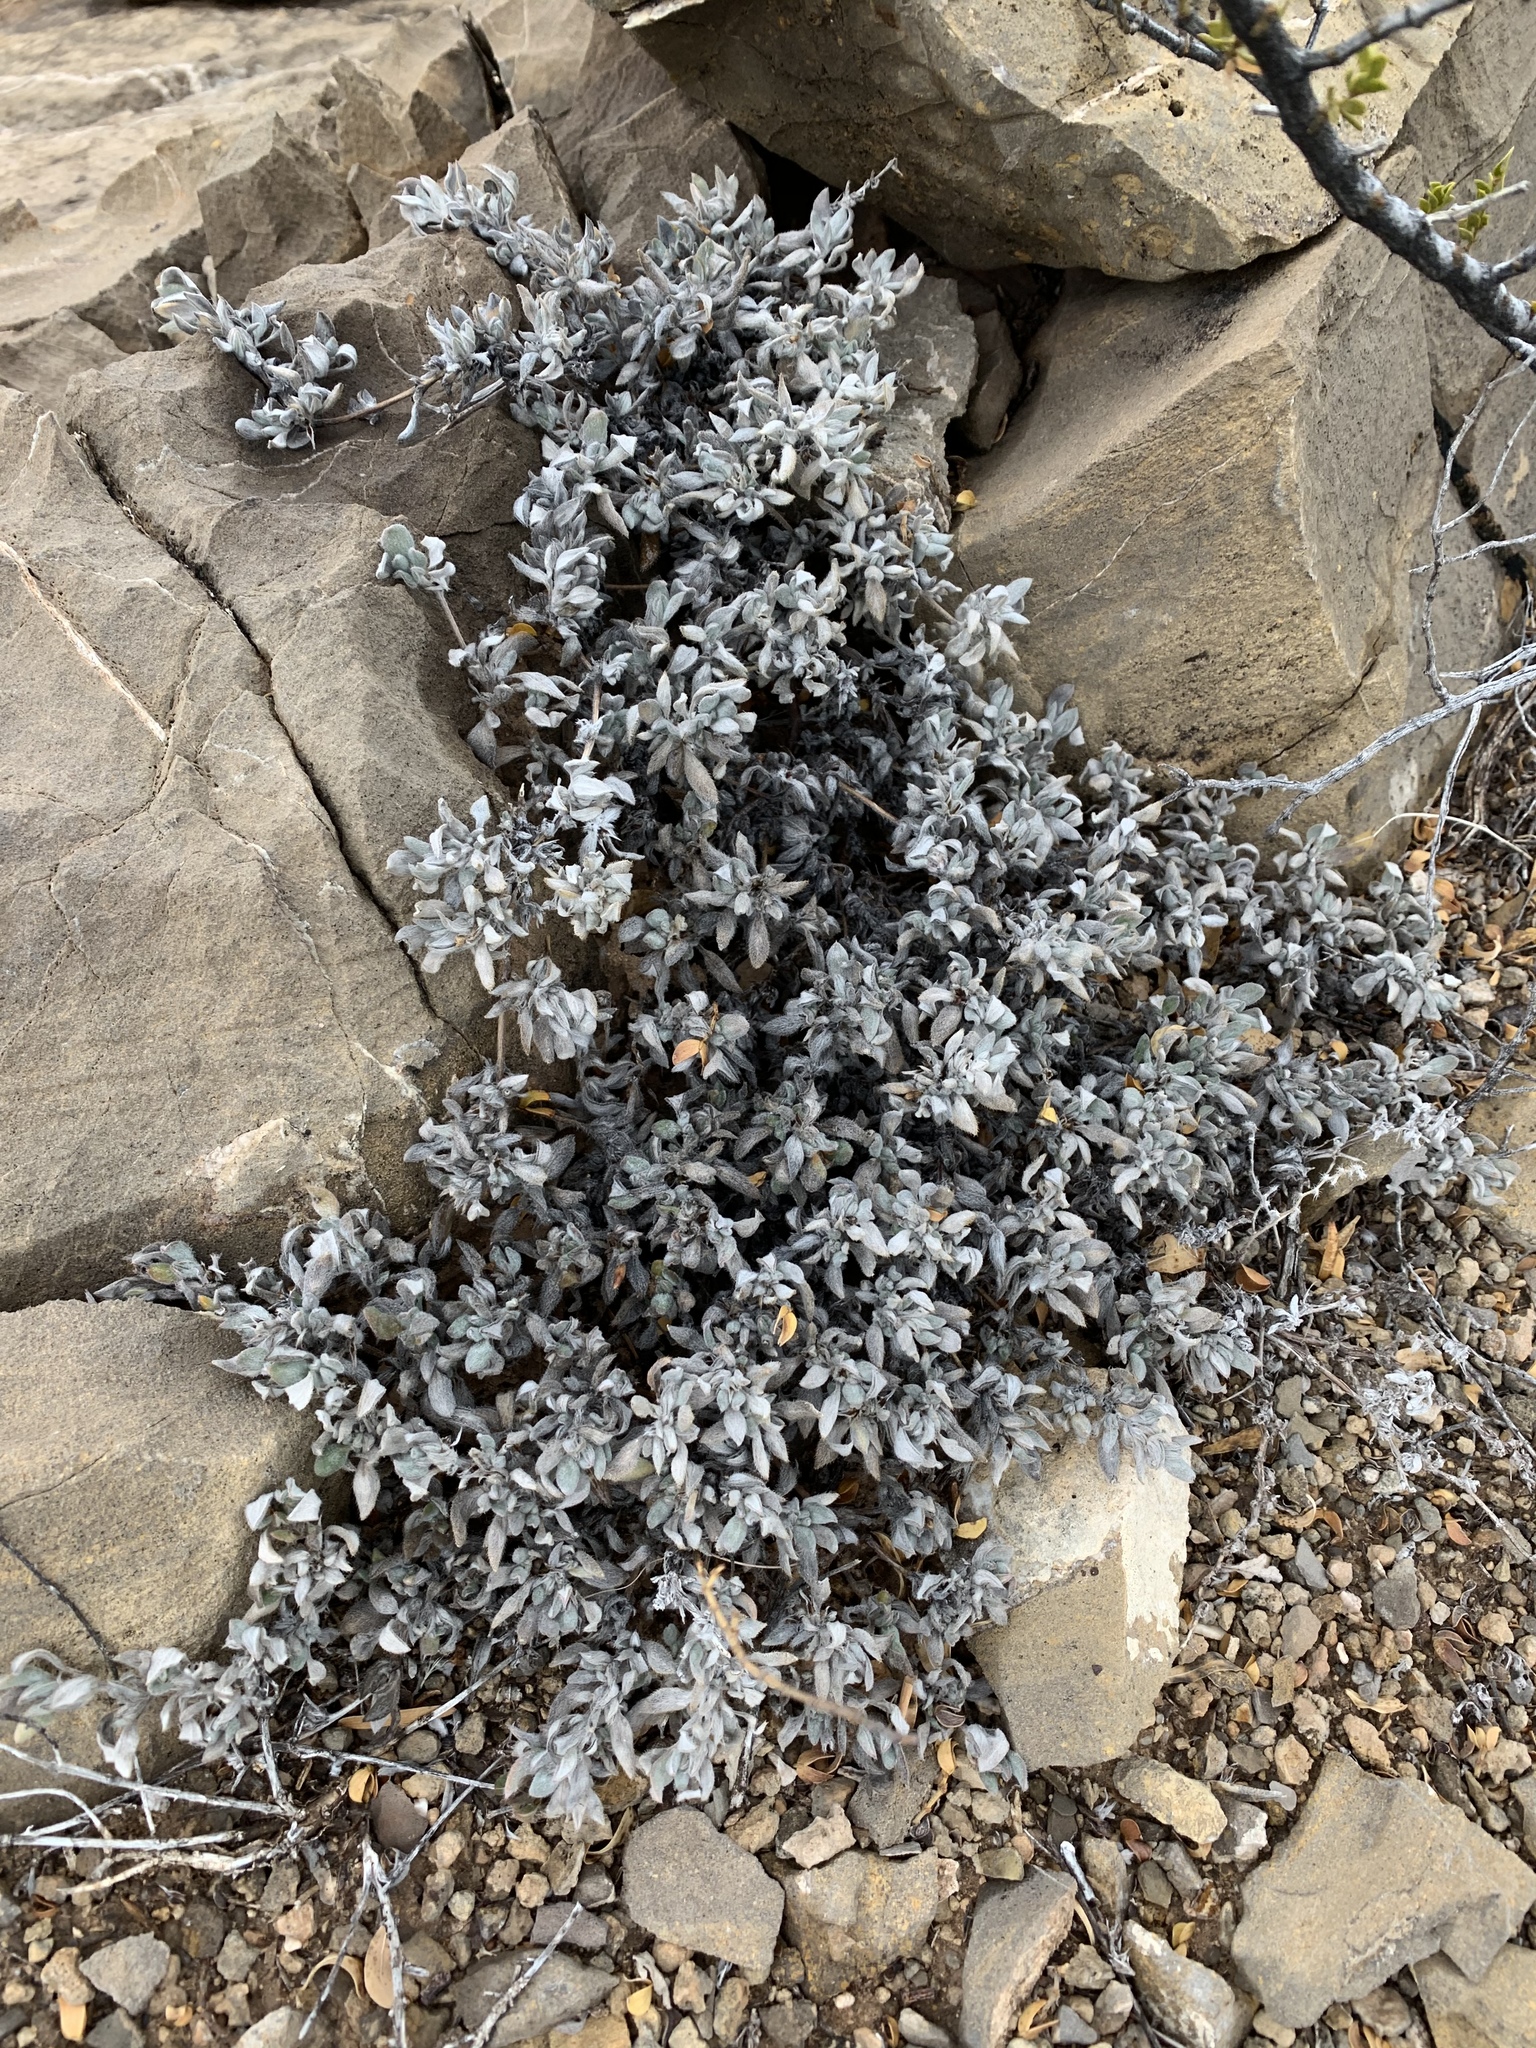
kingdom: Plantae
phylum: Tracheophyta
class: Magnoliopsida
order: Boraginales
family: Ehretiaceae
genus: Tiquilia
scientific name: Tiquilia canescens
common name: Hairy tiquilia
